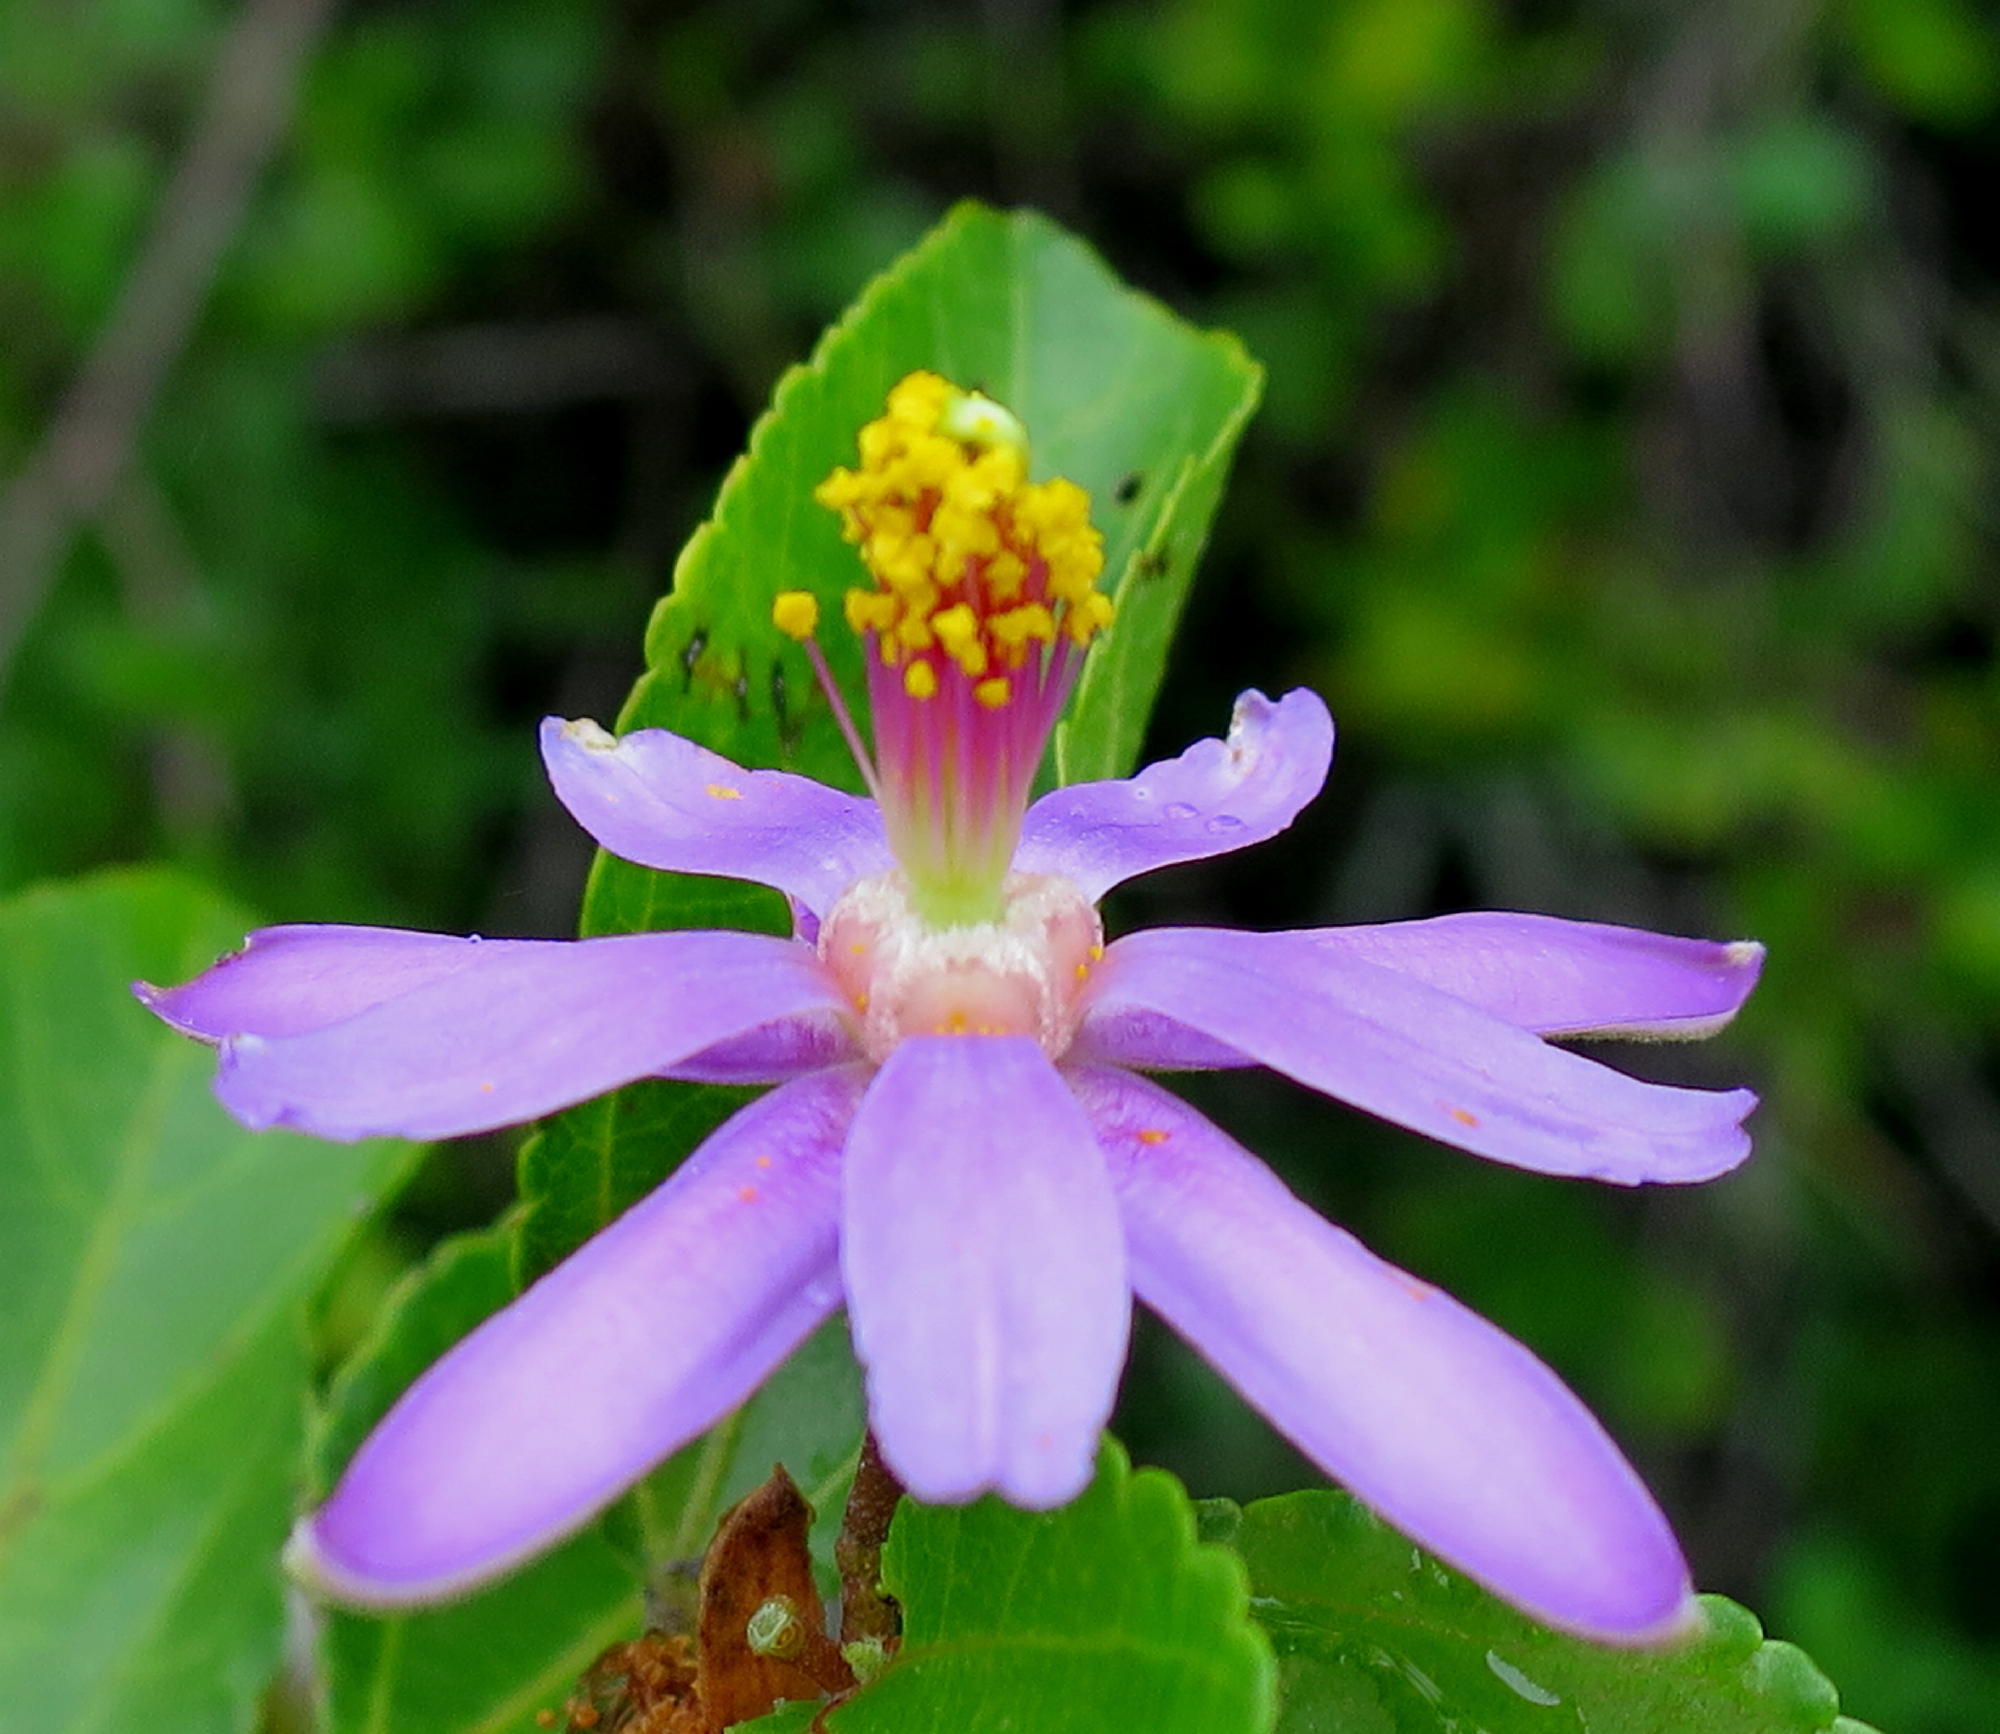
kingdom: Plantae
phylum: Tracheophyta
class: Magnoliopsida
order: Malvales
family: Malvaceae
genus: Grewia
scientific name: Grewia occidentalis
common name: Crossberry
